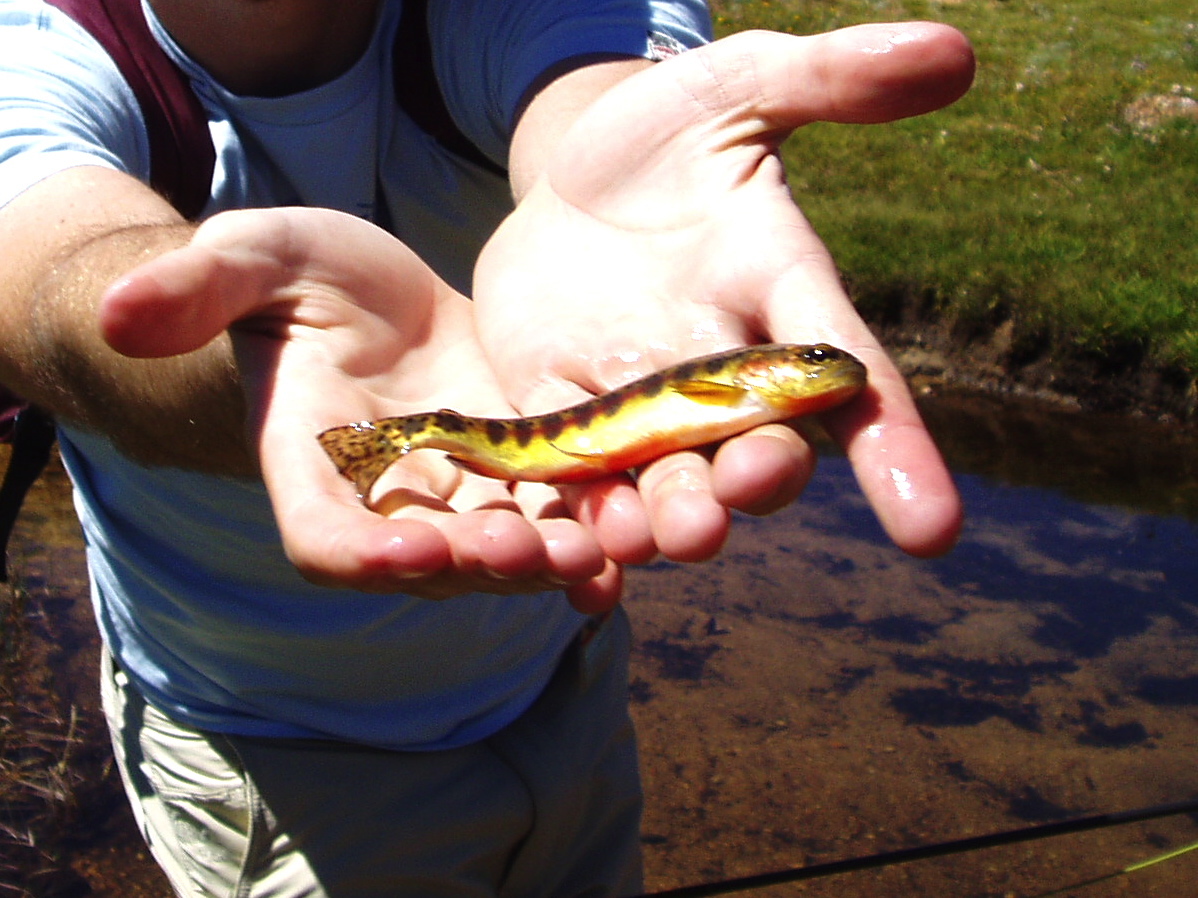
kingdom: Animalia
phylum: Chordata
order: Salmoniformes
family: Salmonidae
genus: Oncorhynchus
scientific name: Oncorhynchus aguabonita
